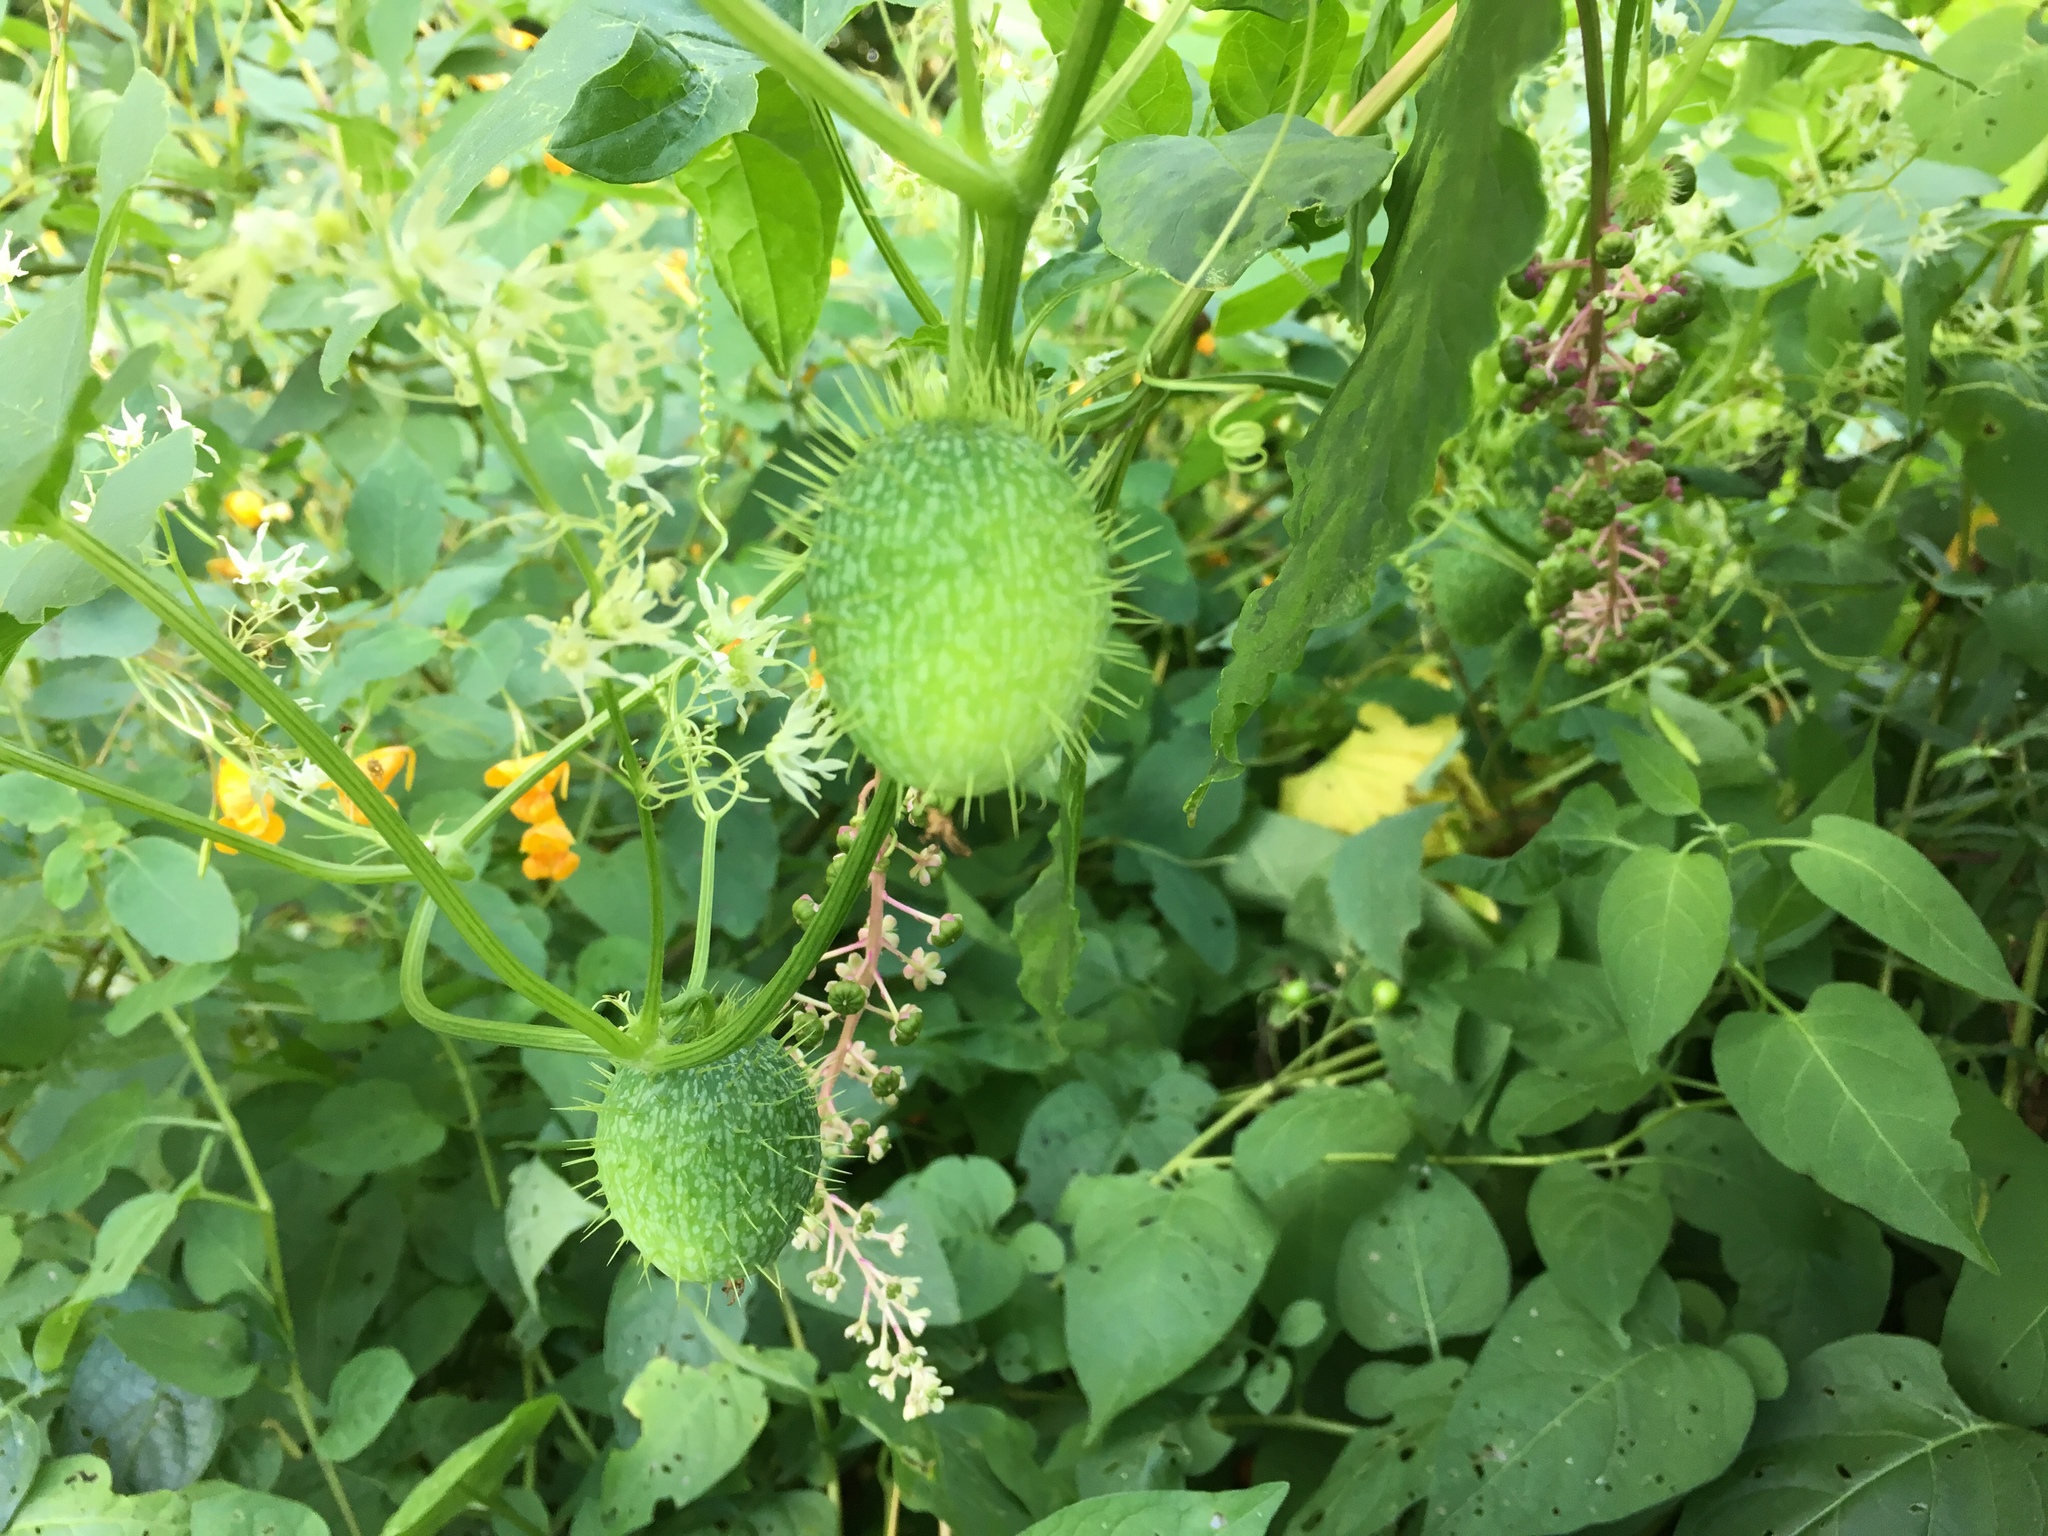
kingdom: Plantae
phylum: Tracheophyta
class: Magnoliopsida
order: Cucurbitales
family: Cucurbitaceae
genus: Echinocystis
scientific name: Echinocystis lobata
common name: Wild cucumber
